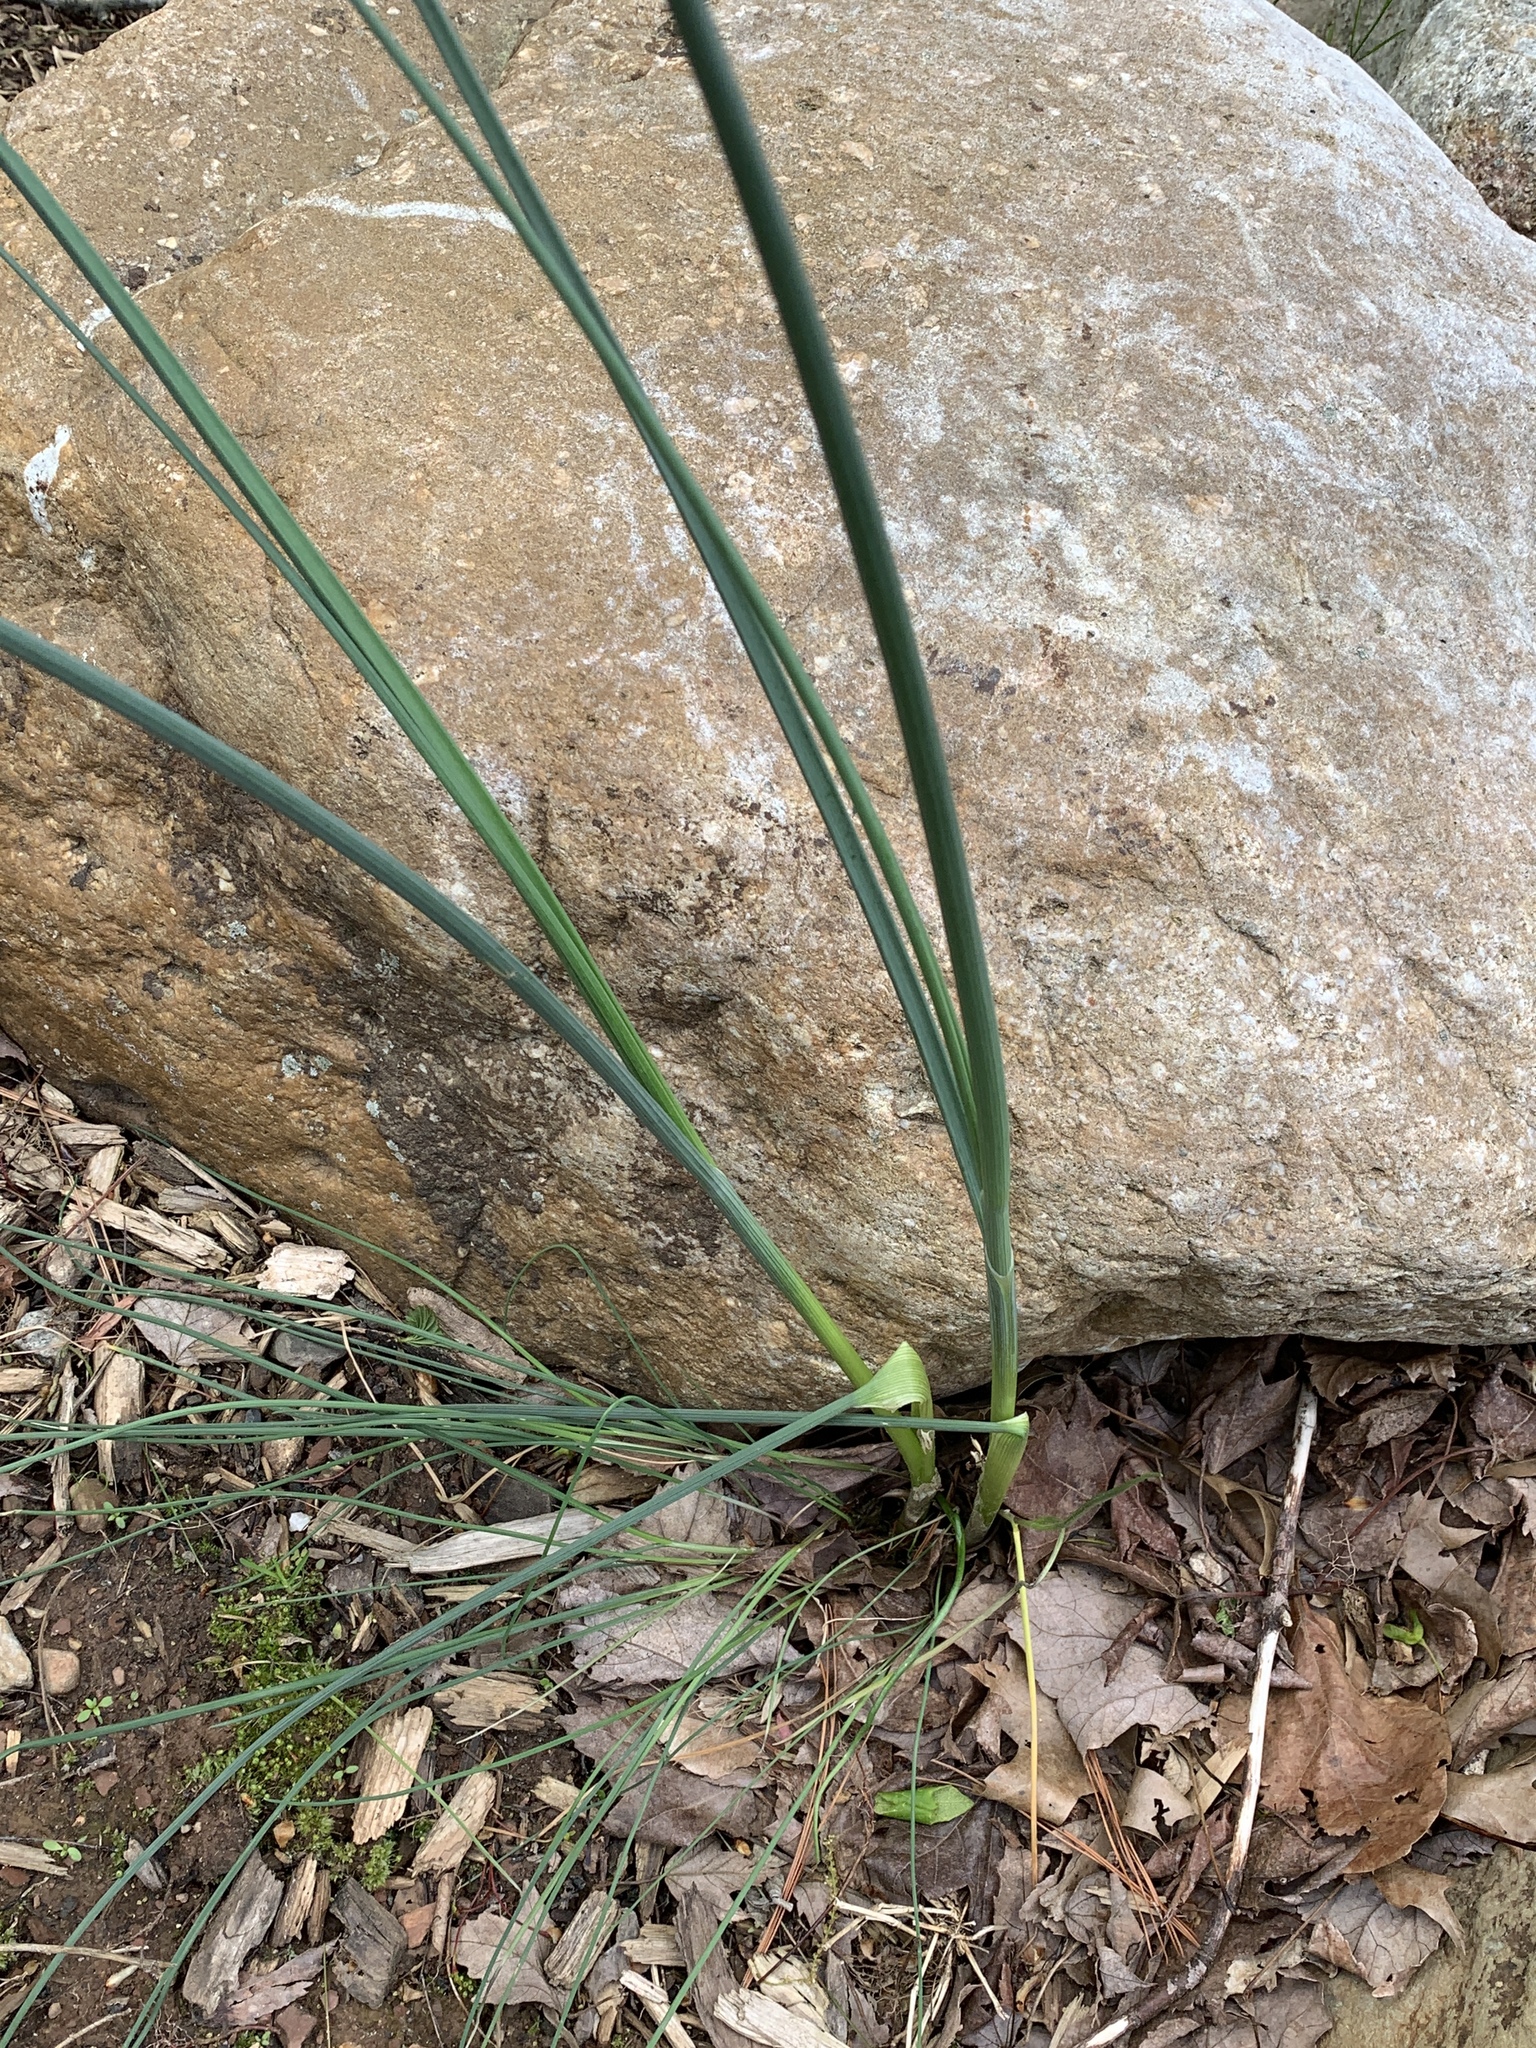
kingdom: Plantae
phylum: Tracheophyta
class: Liliopsida
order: Asparagales
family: Amaryllidaceae
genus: Allium
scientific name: Allium vineale
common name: Crow garlic
